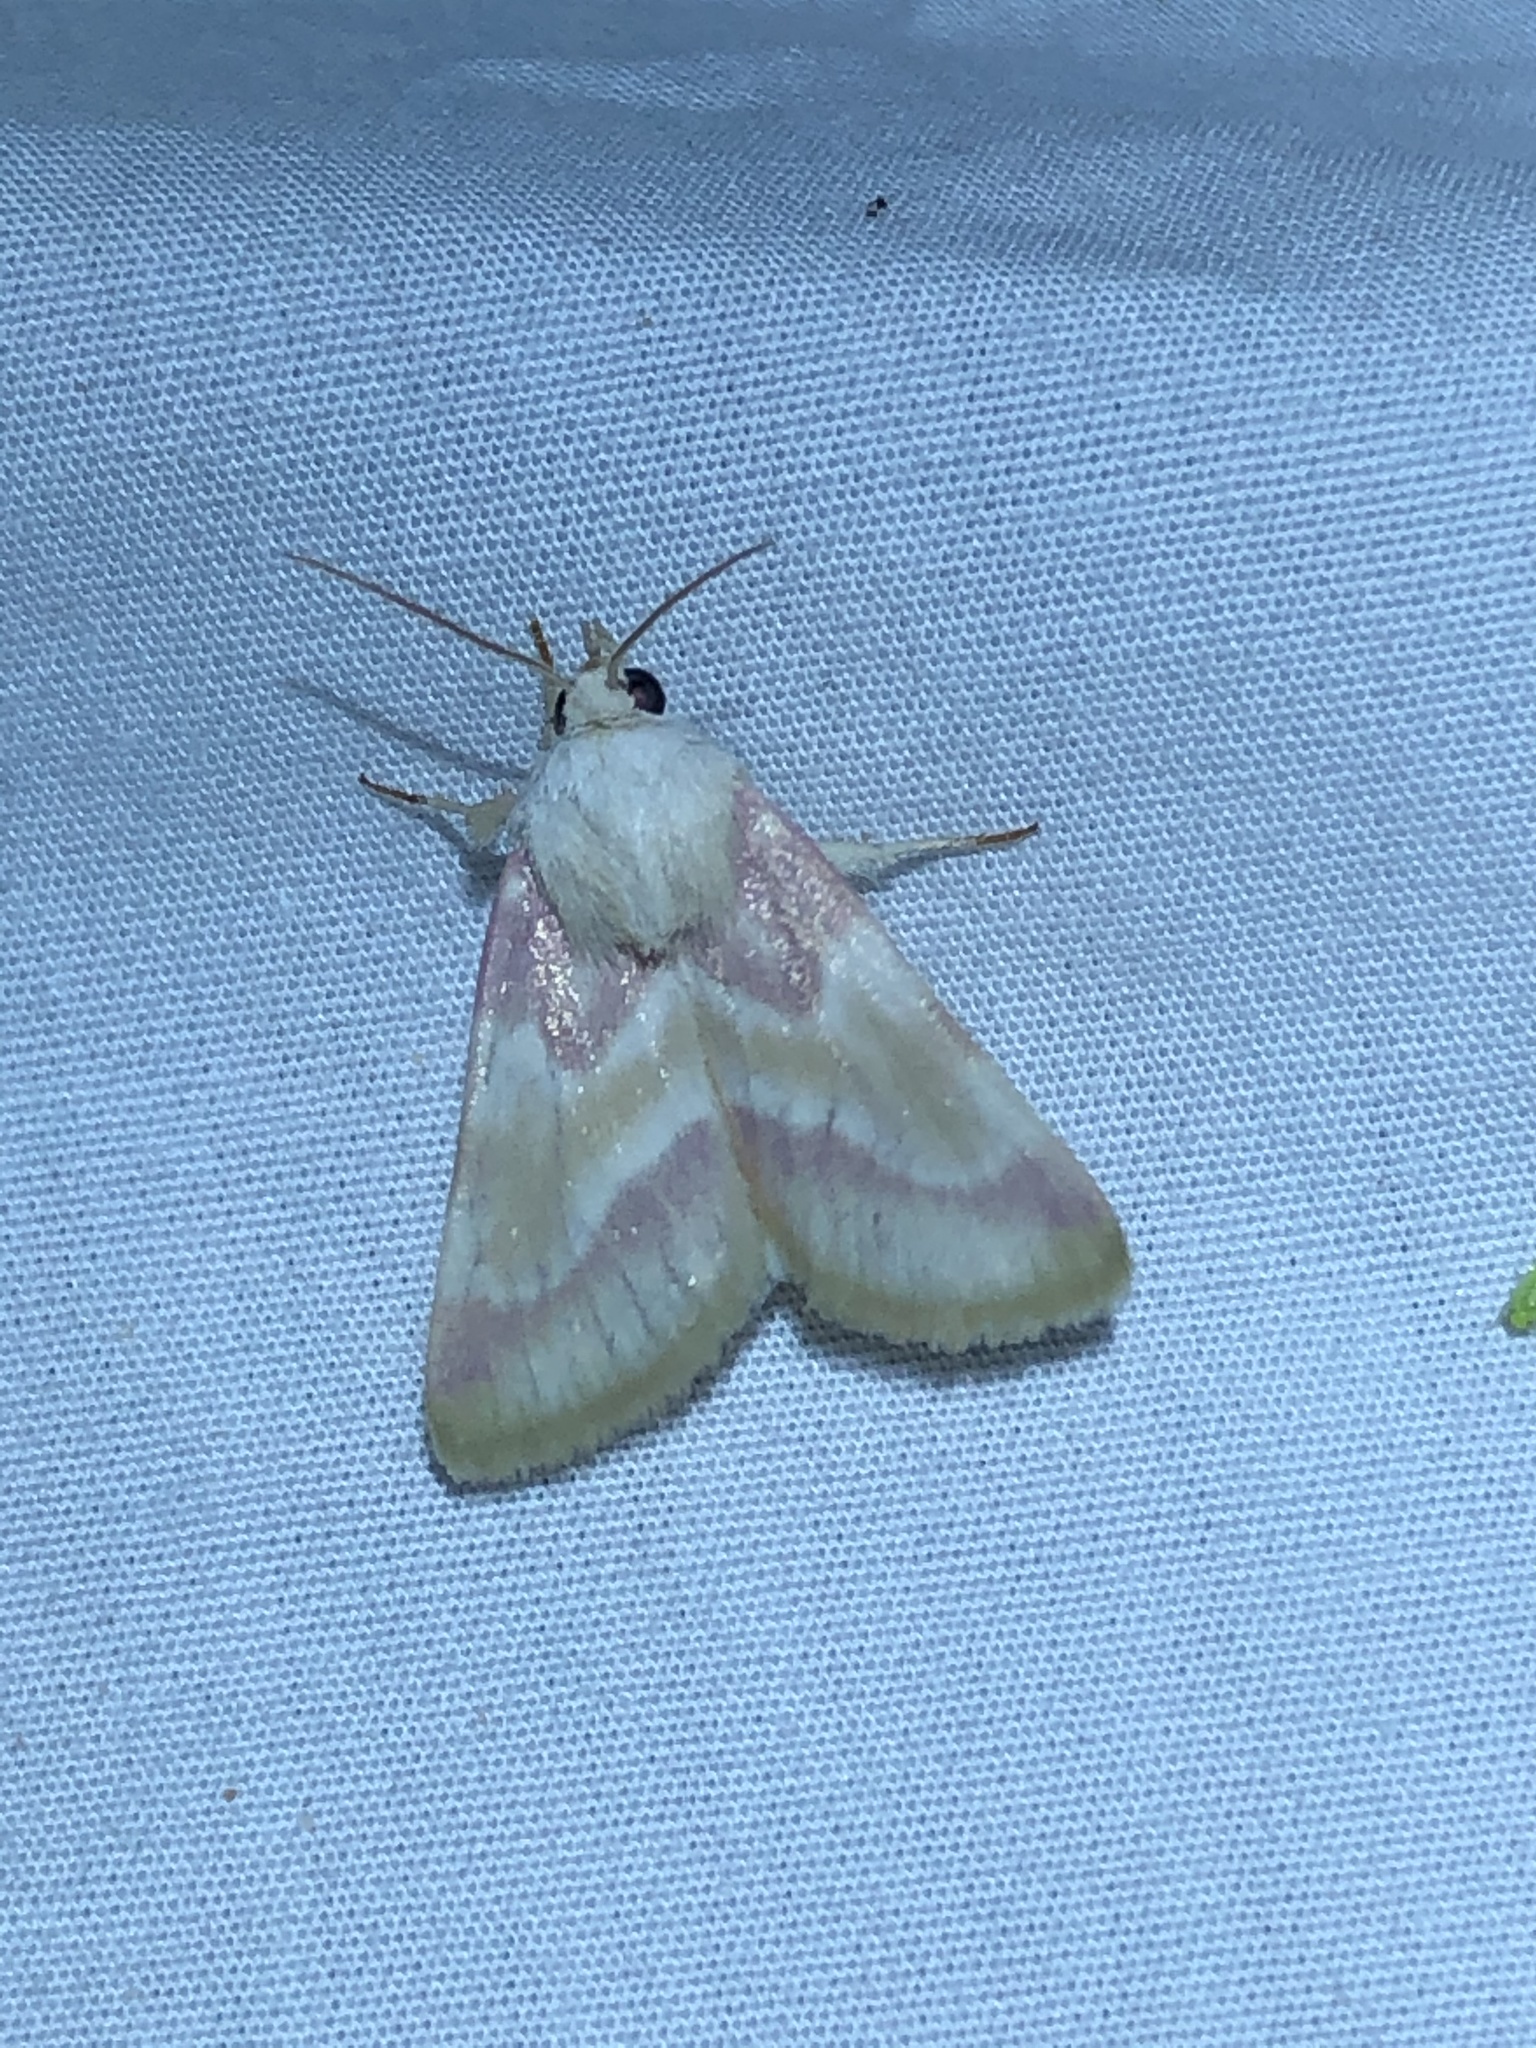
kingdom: Animalia
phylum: Arthropoda
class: Insecta
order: Lepidoptera
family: Noctuidae
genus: Schinia
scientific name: Schinia regina
